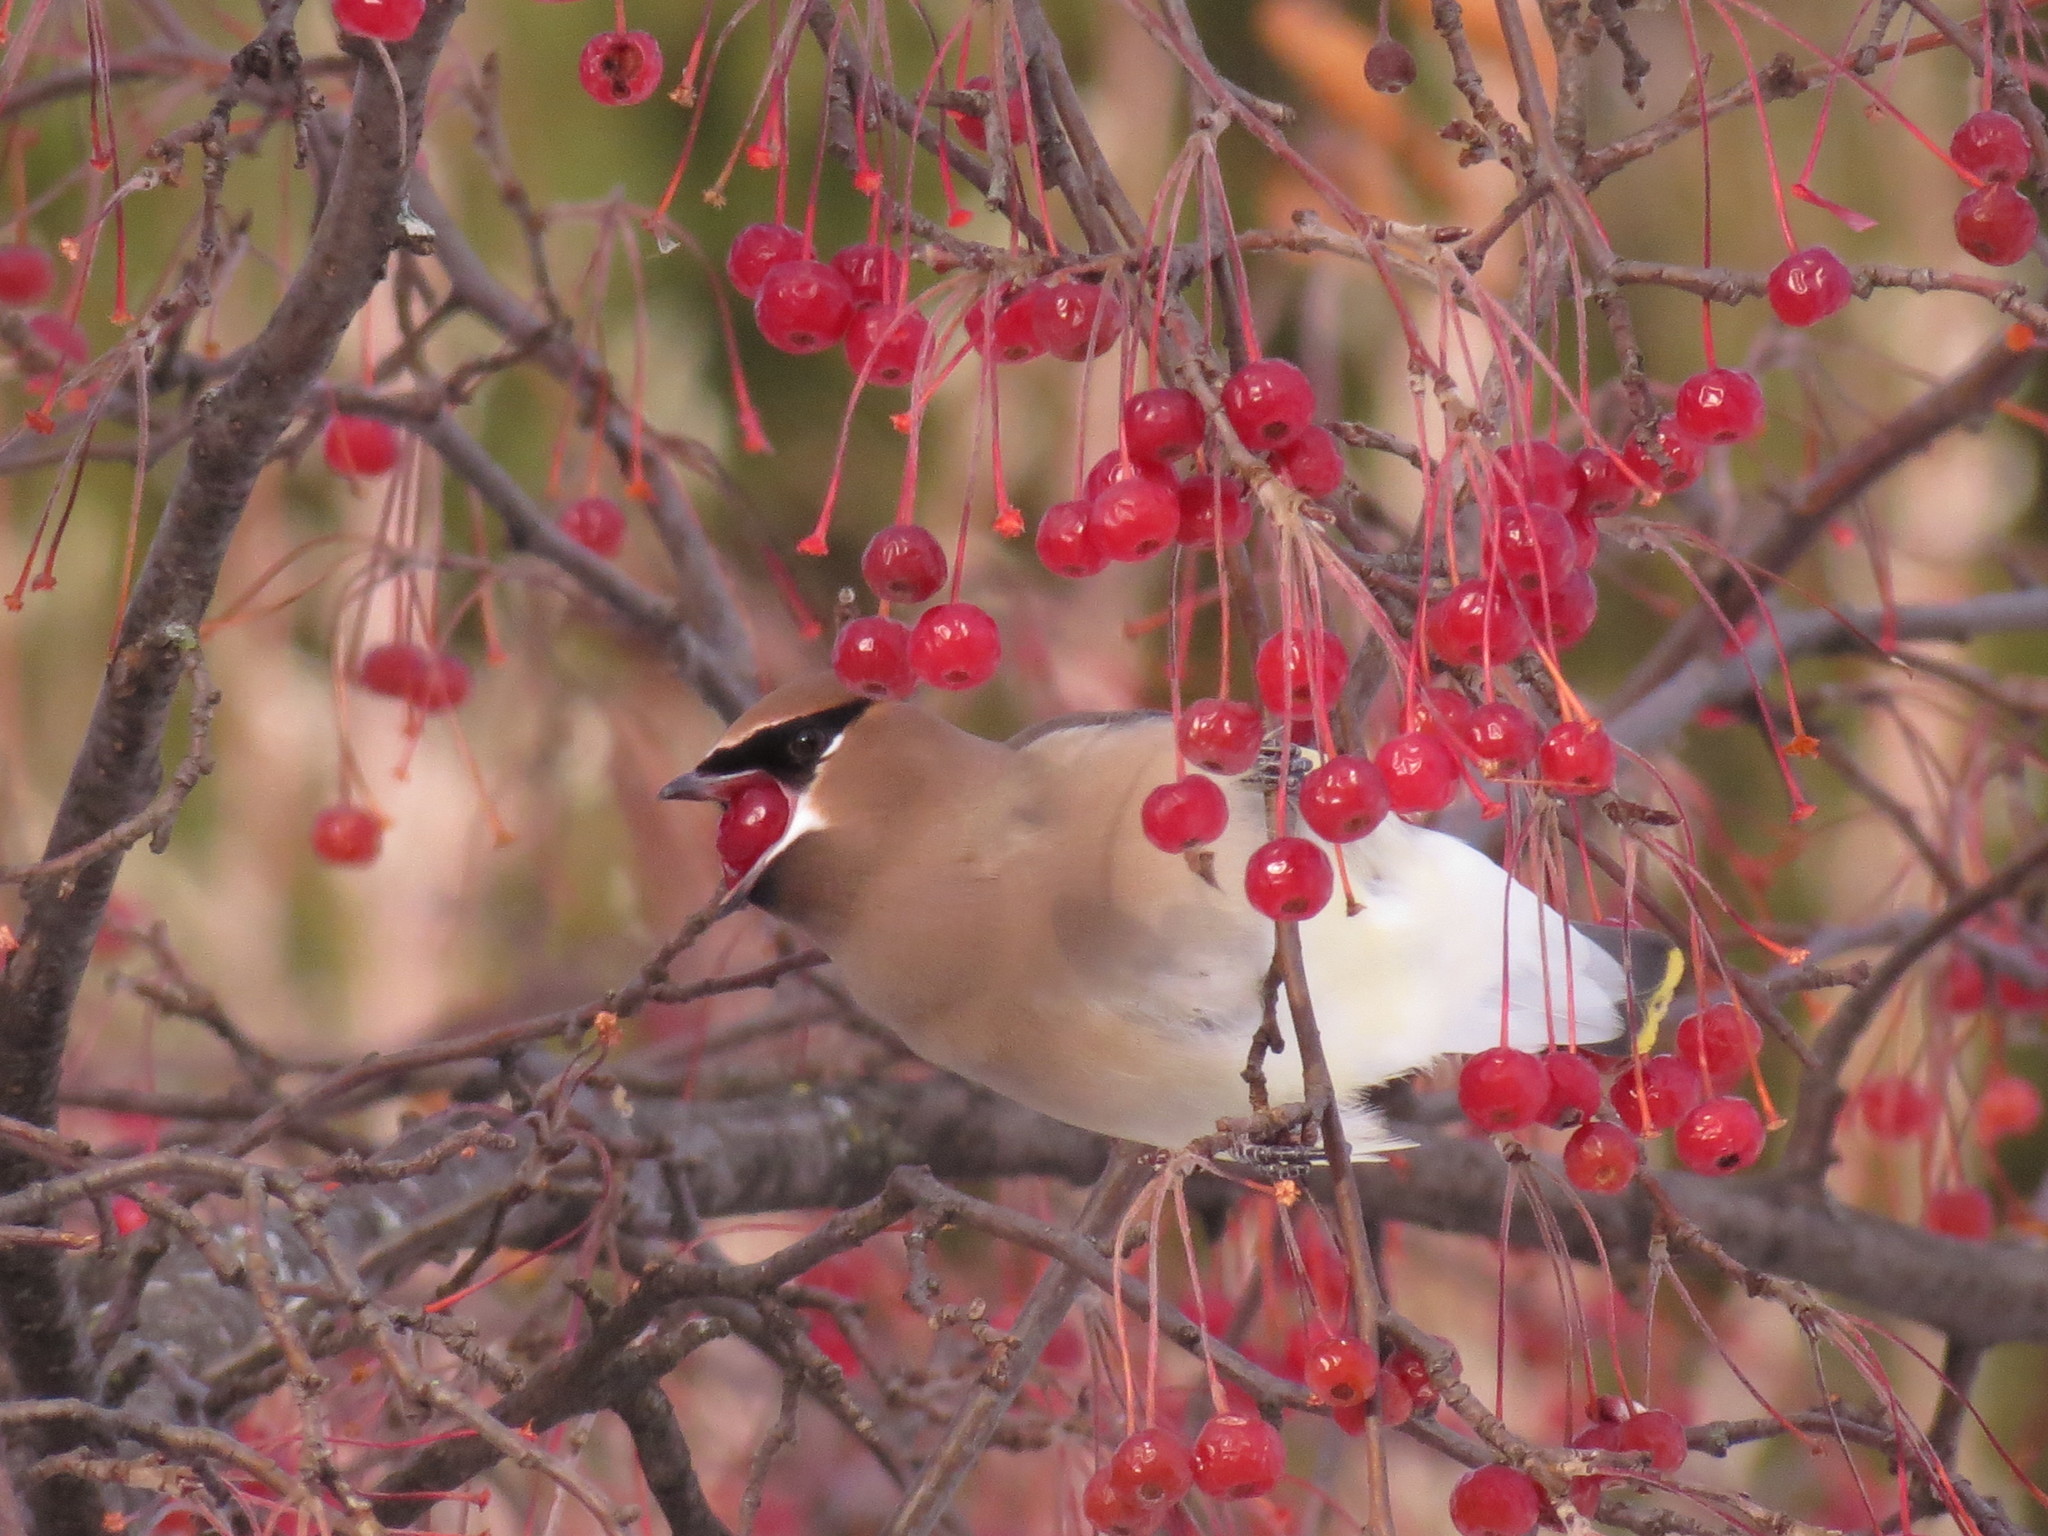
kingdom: Animalia
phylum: Chordata
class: Aves
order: Passeriformes
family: Bombycillidae
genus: Bombycilla
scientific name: Bombycilla cedrorum
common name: Cedar waxwing
